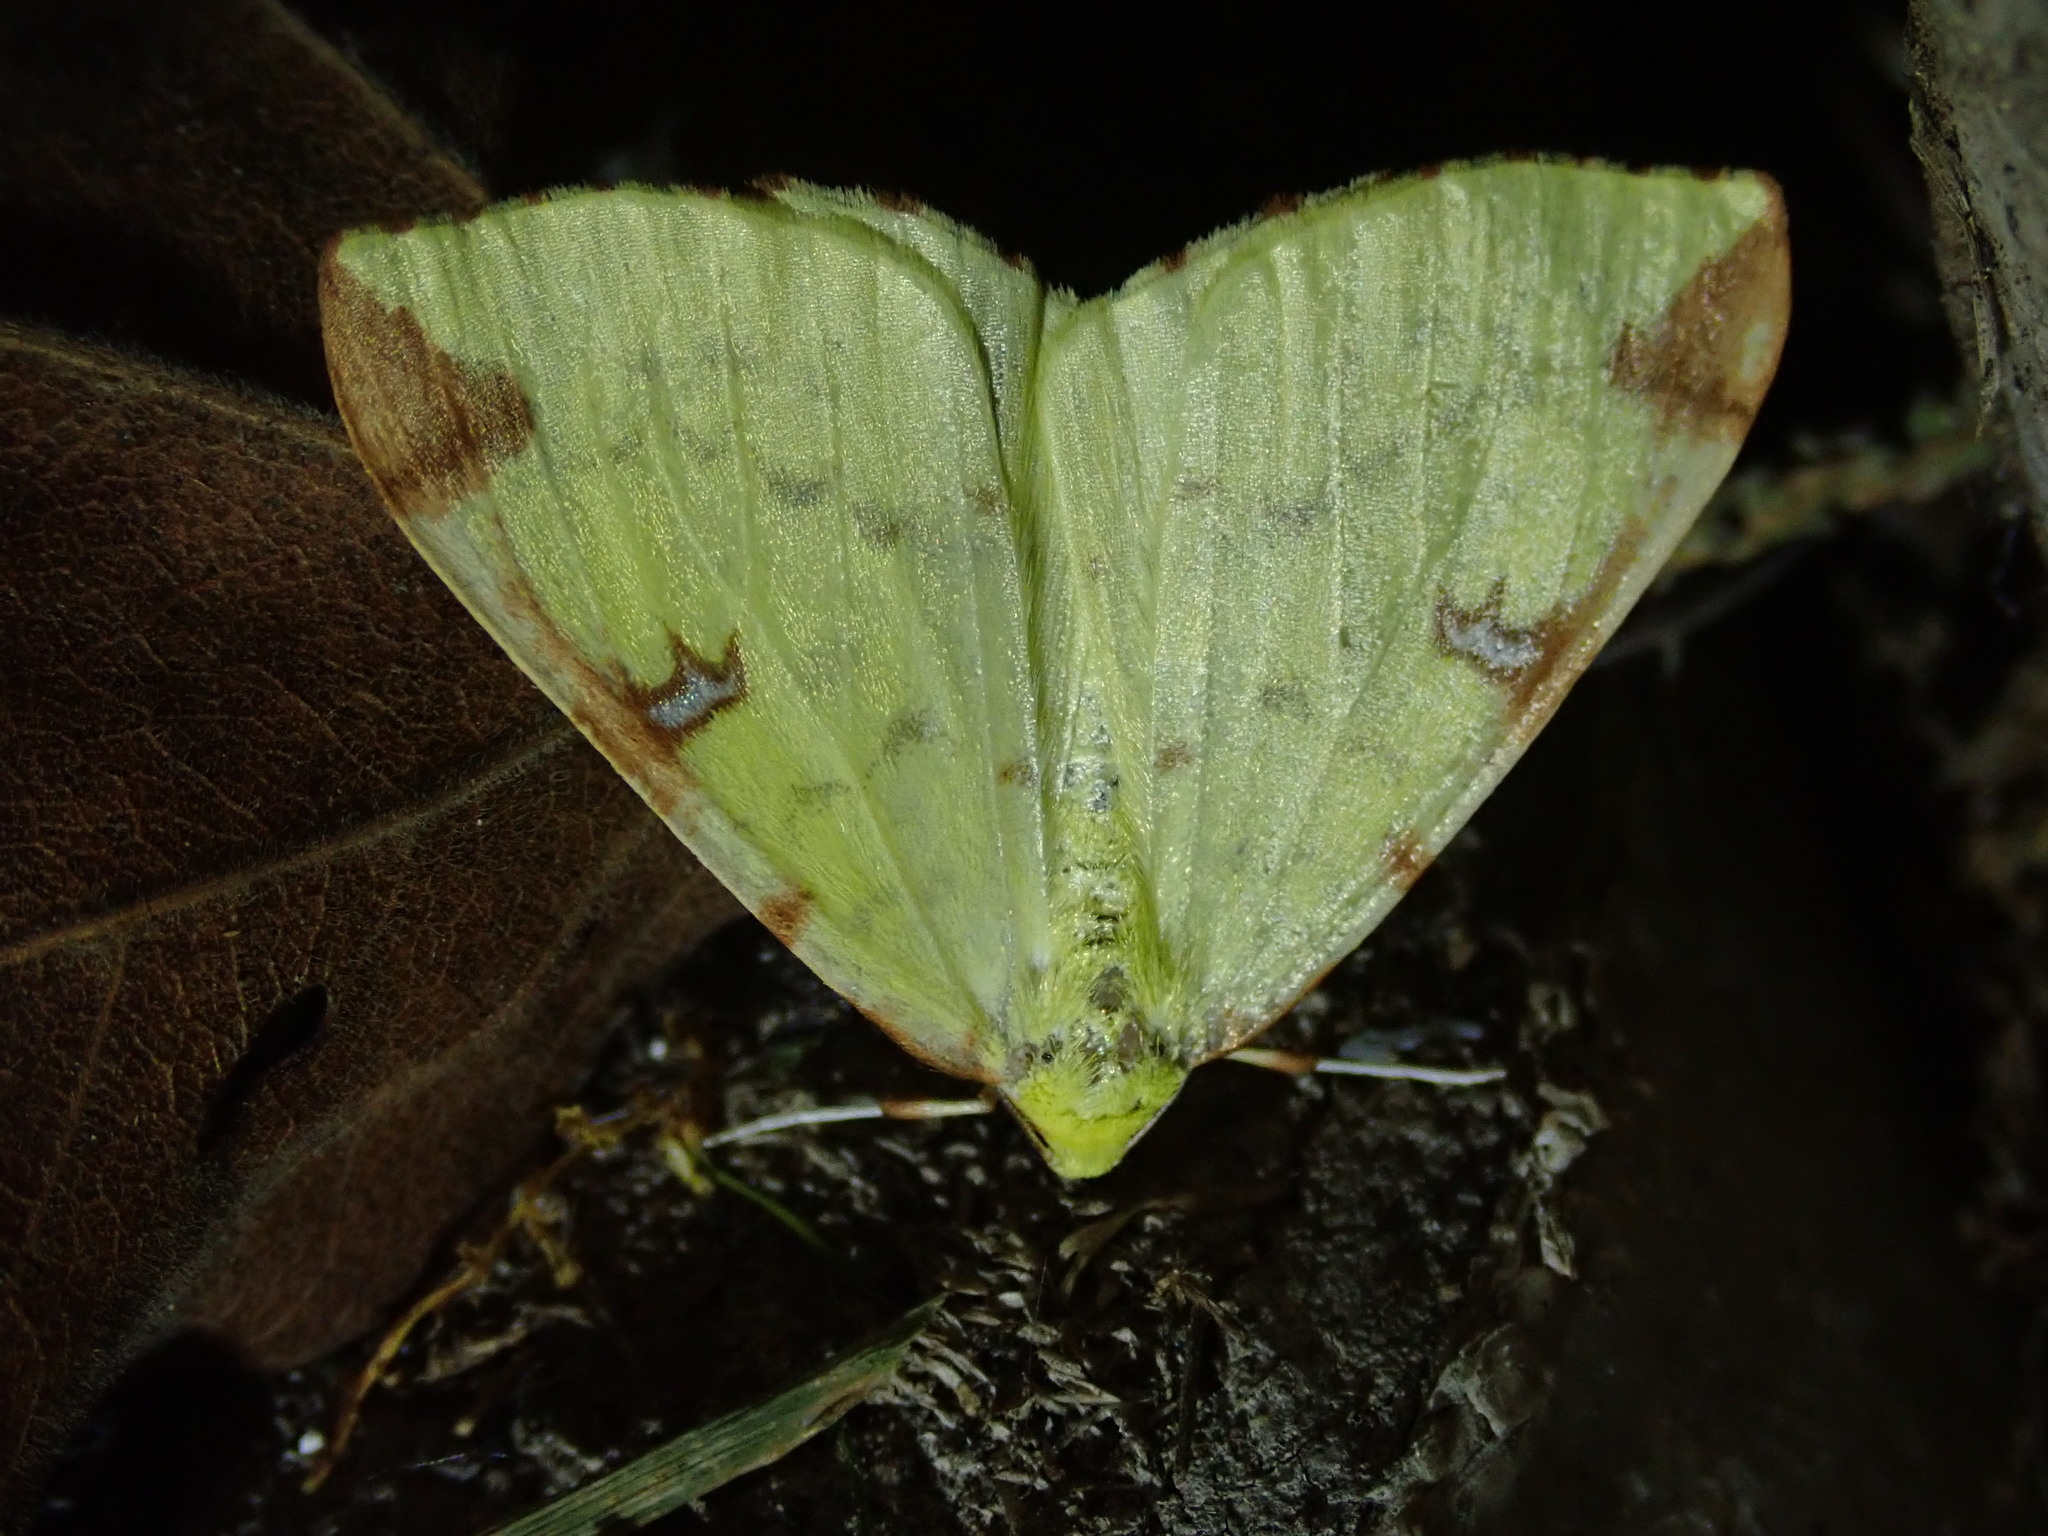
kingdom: Animalia
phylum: Arthropoda
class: Insecta
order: Lepidoptera
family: Geometridae
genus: Opisthograptis
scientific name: Opisthograptis luteolata
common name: Brimstone moth
